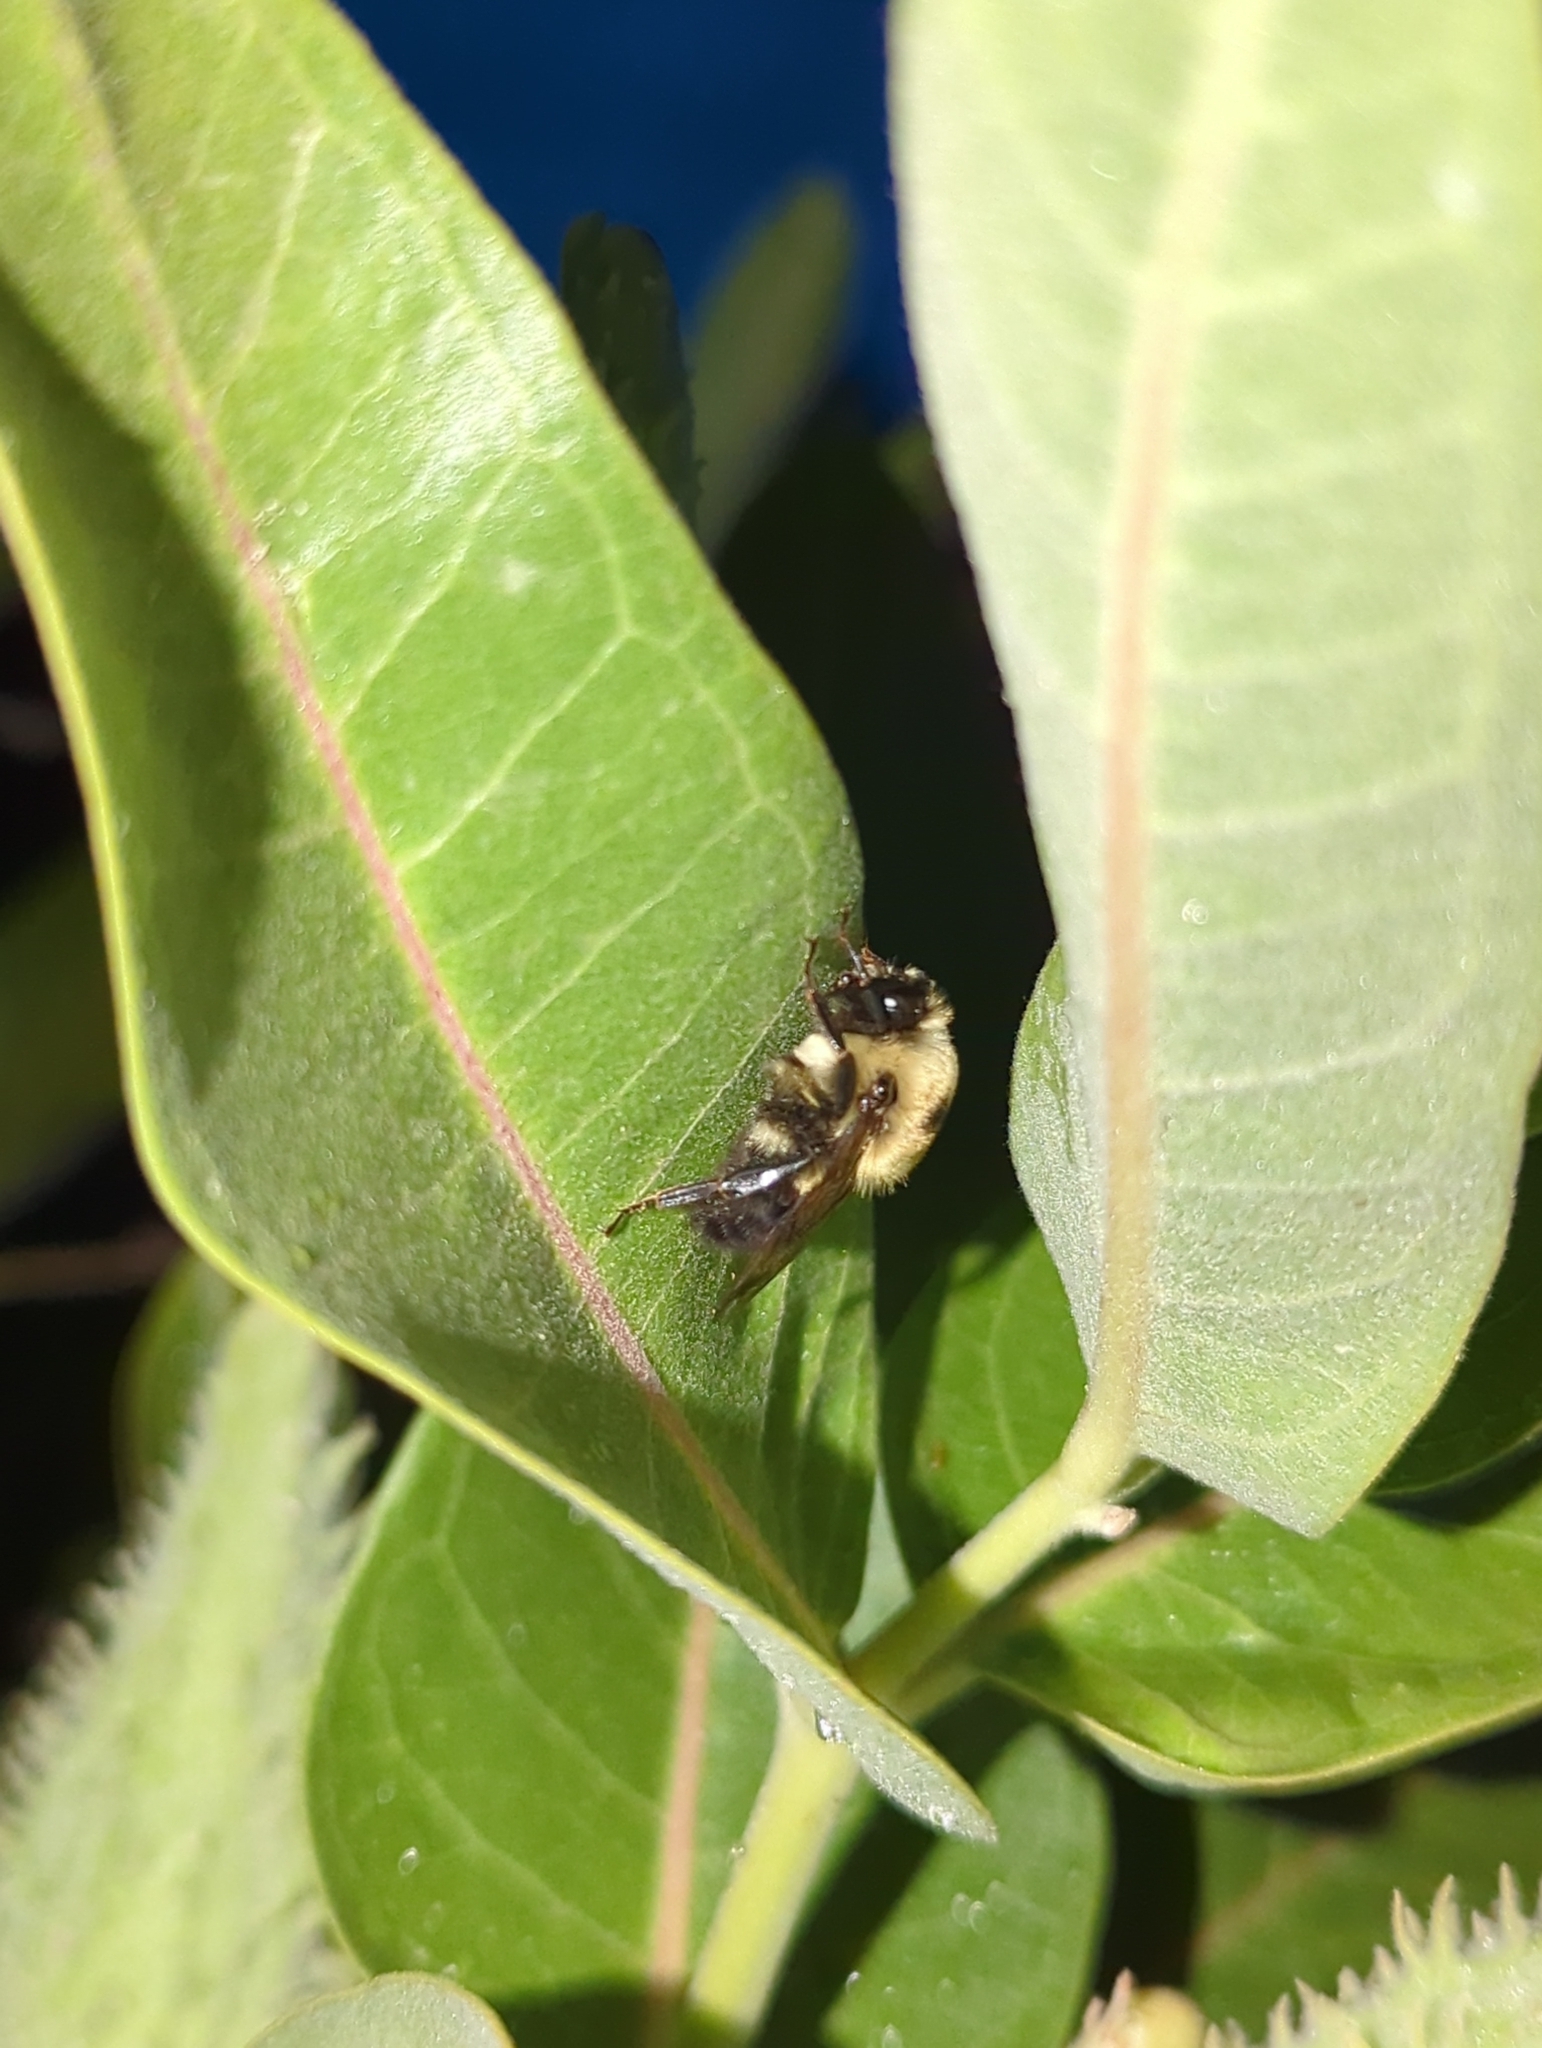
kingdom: Animalia
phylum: Arthropoda
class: Insecta
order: Hymenoptera
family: Apidae
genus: Bombus
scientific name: Bombus griseocollis
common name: Brown-belted bumble bee
